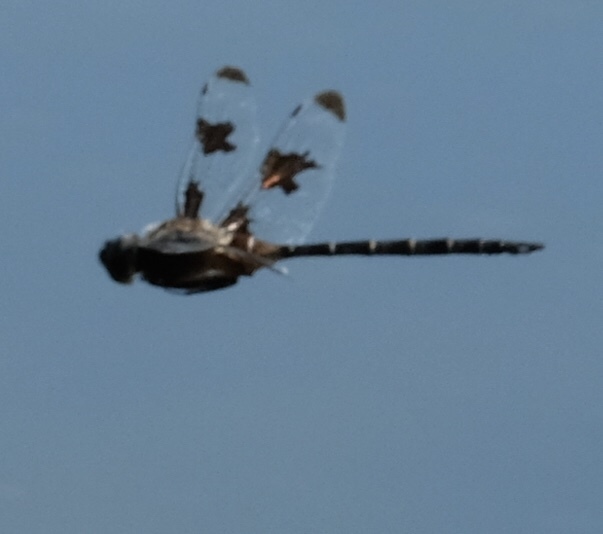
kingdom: Animalia
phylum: Arthropoda
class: Insecta
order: Odonata
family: Corduliidae
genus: Epitheca
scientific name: Epitheca princeps
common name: Prince baskettail
